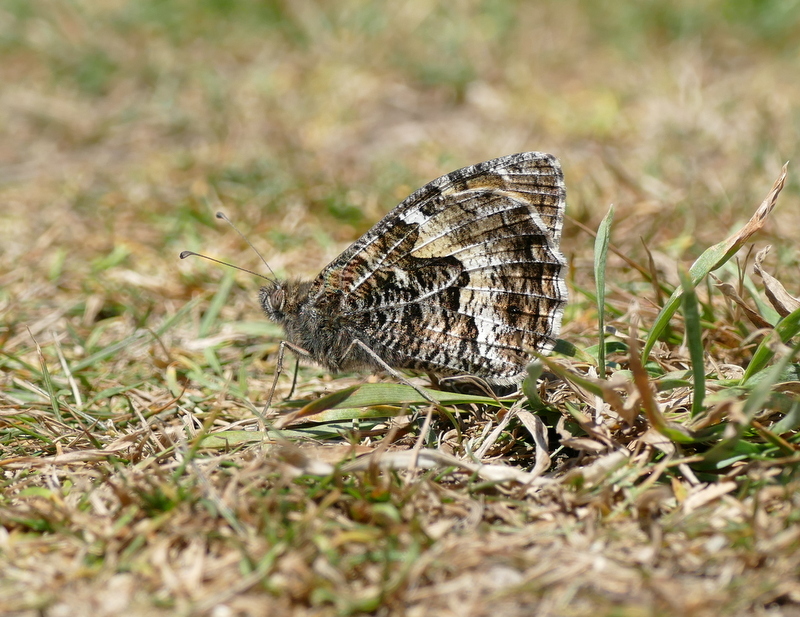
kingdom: Animalia
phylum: Arthropoda
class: Insecta
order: Lepidoptera
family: Nymphalidae
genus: Hipparchia
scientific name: Hipparchia semele
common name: Grayling
